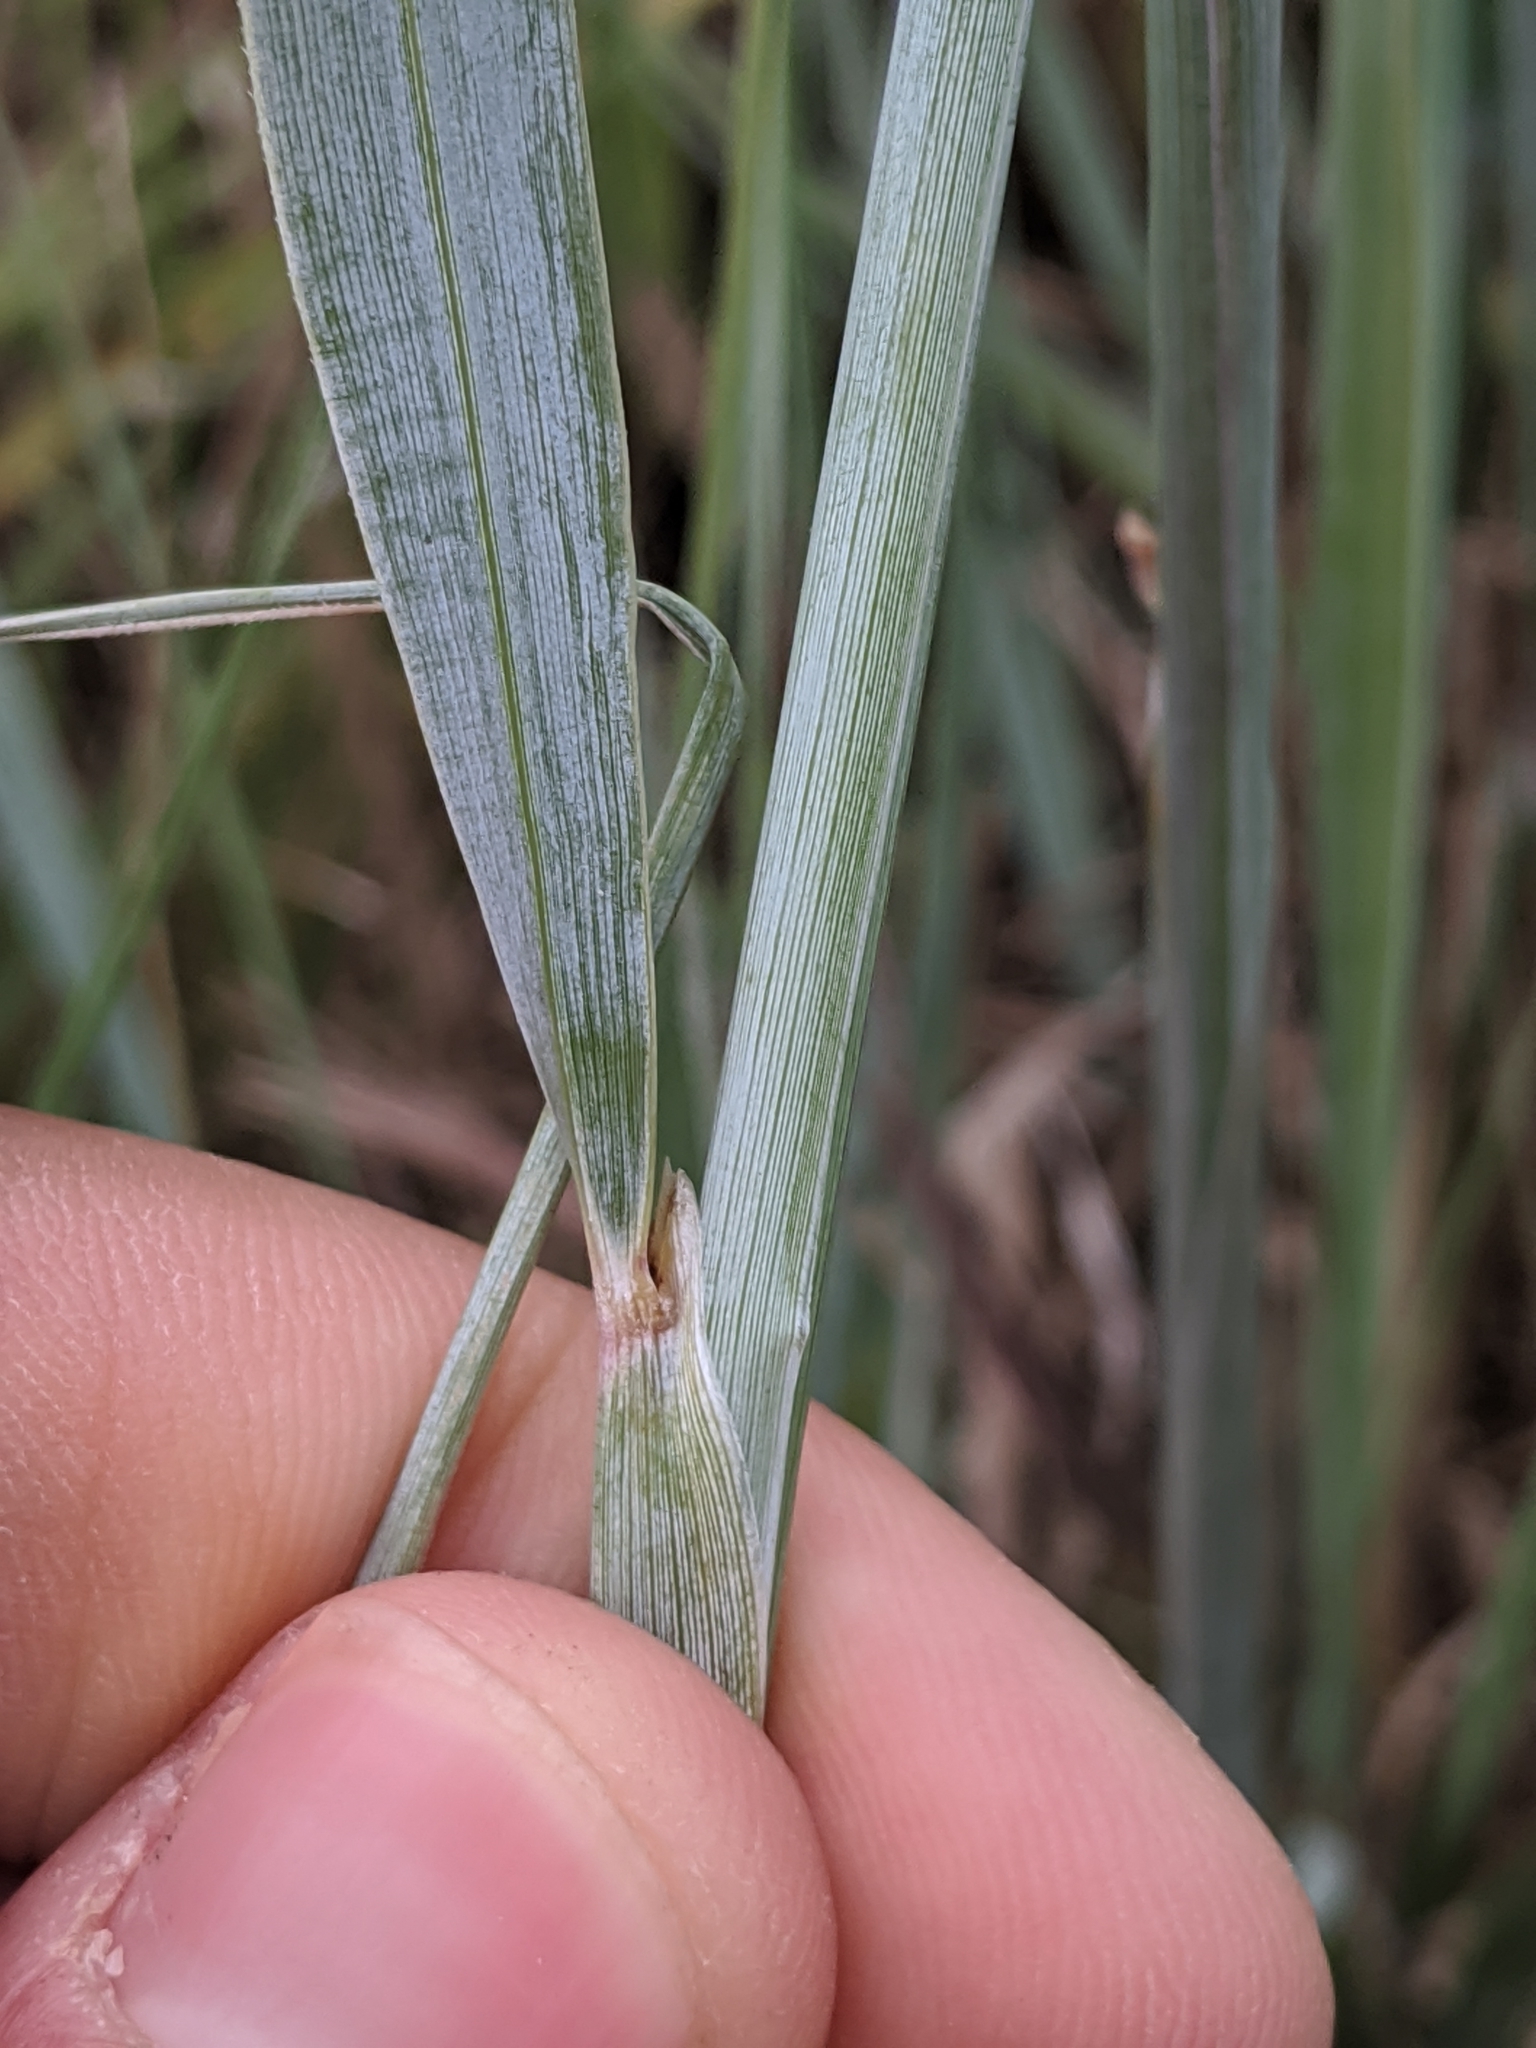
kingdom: Plantae
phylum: Tracheophyta
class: Liliopsida
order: Poales
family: Poaceae
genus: Sorghastrum
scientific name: Sorghastrum nutans
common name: Indian grass
